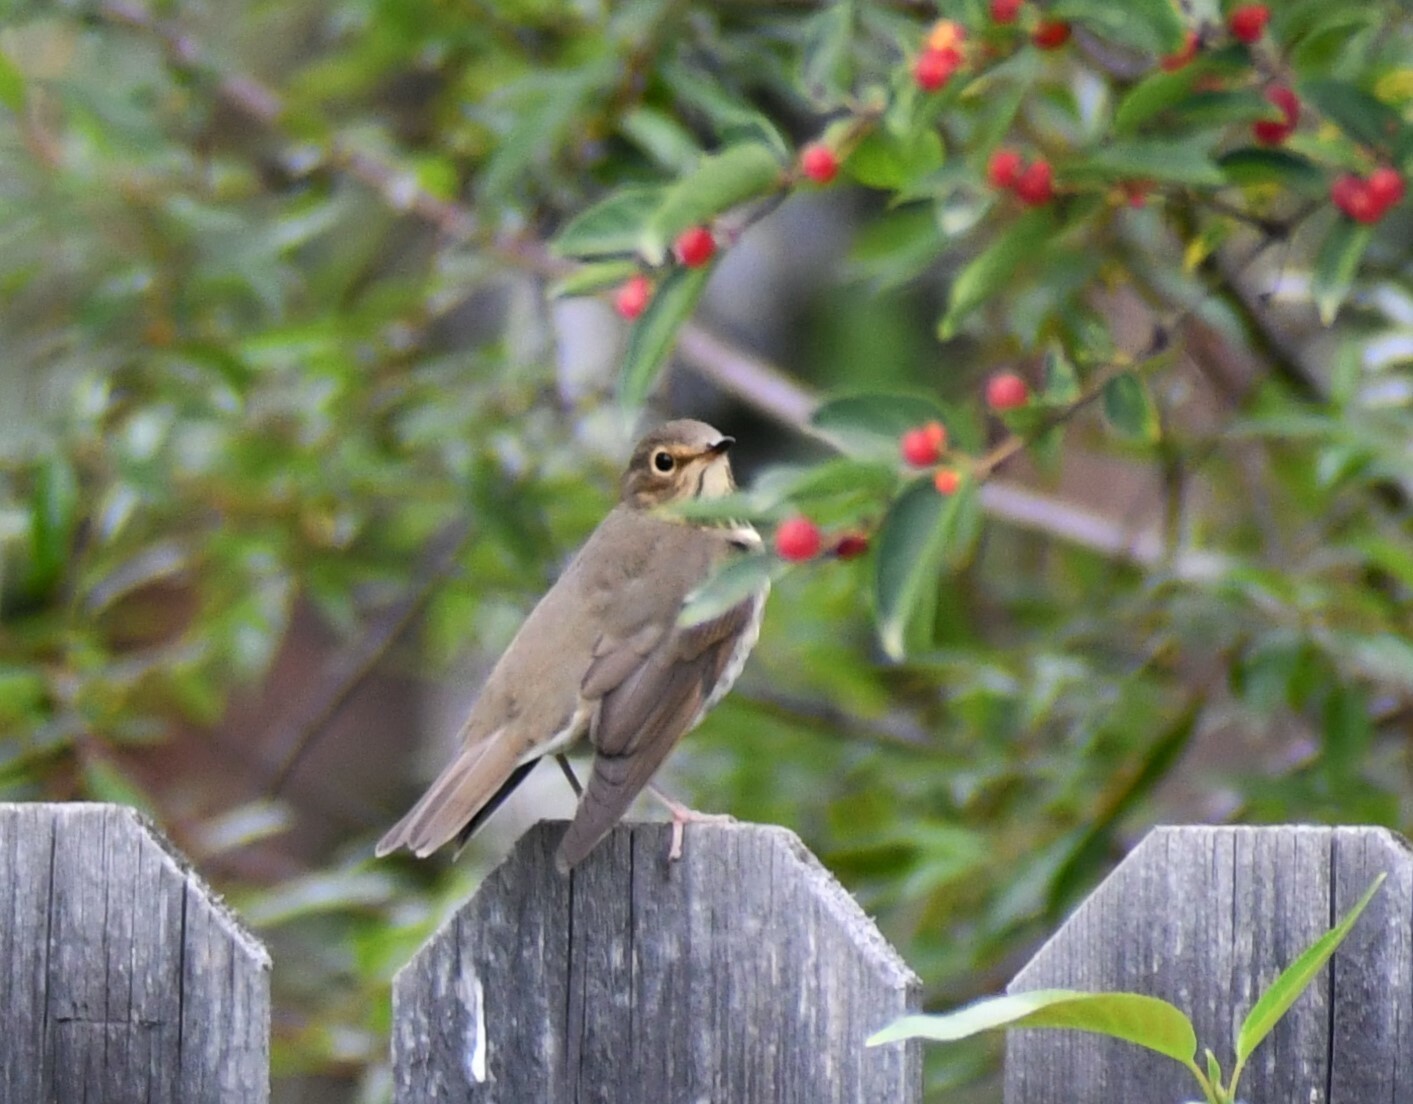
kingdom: Animalia
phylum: Chordata
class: Aves
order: Passeriformes
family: Turdidae
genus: Catharus
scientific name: Catharus ustulatus
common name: Swainson's thrush
